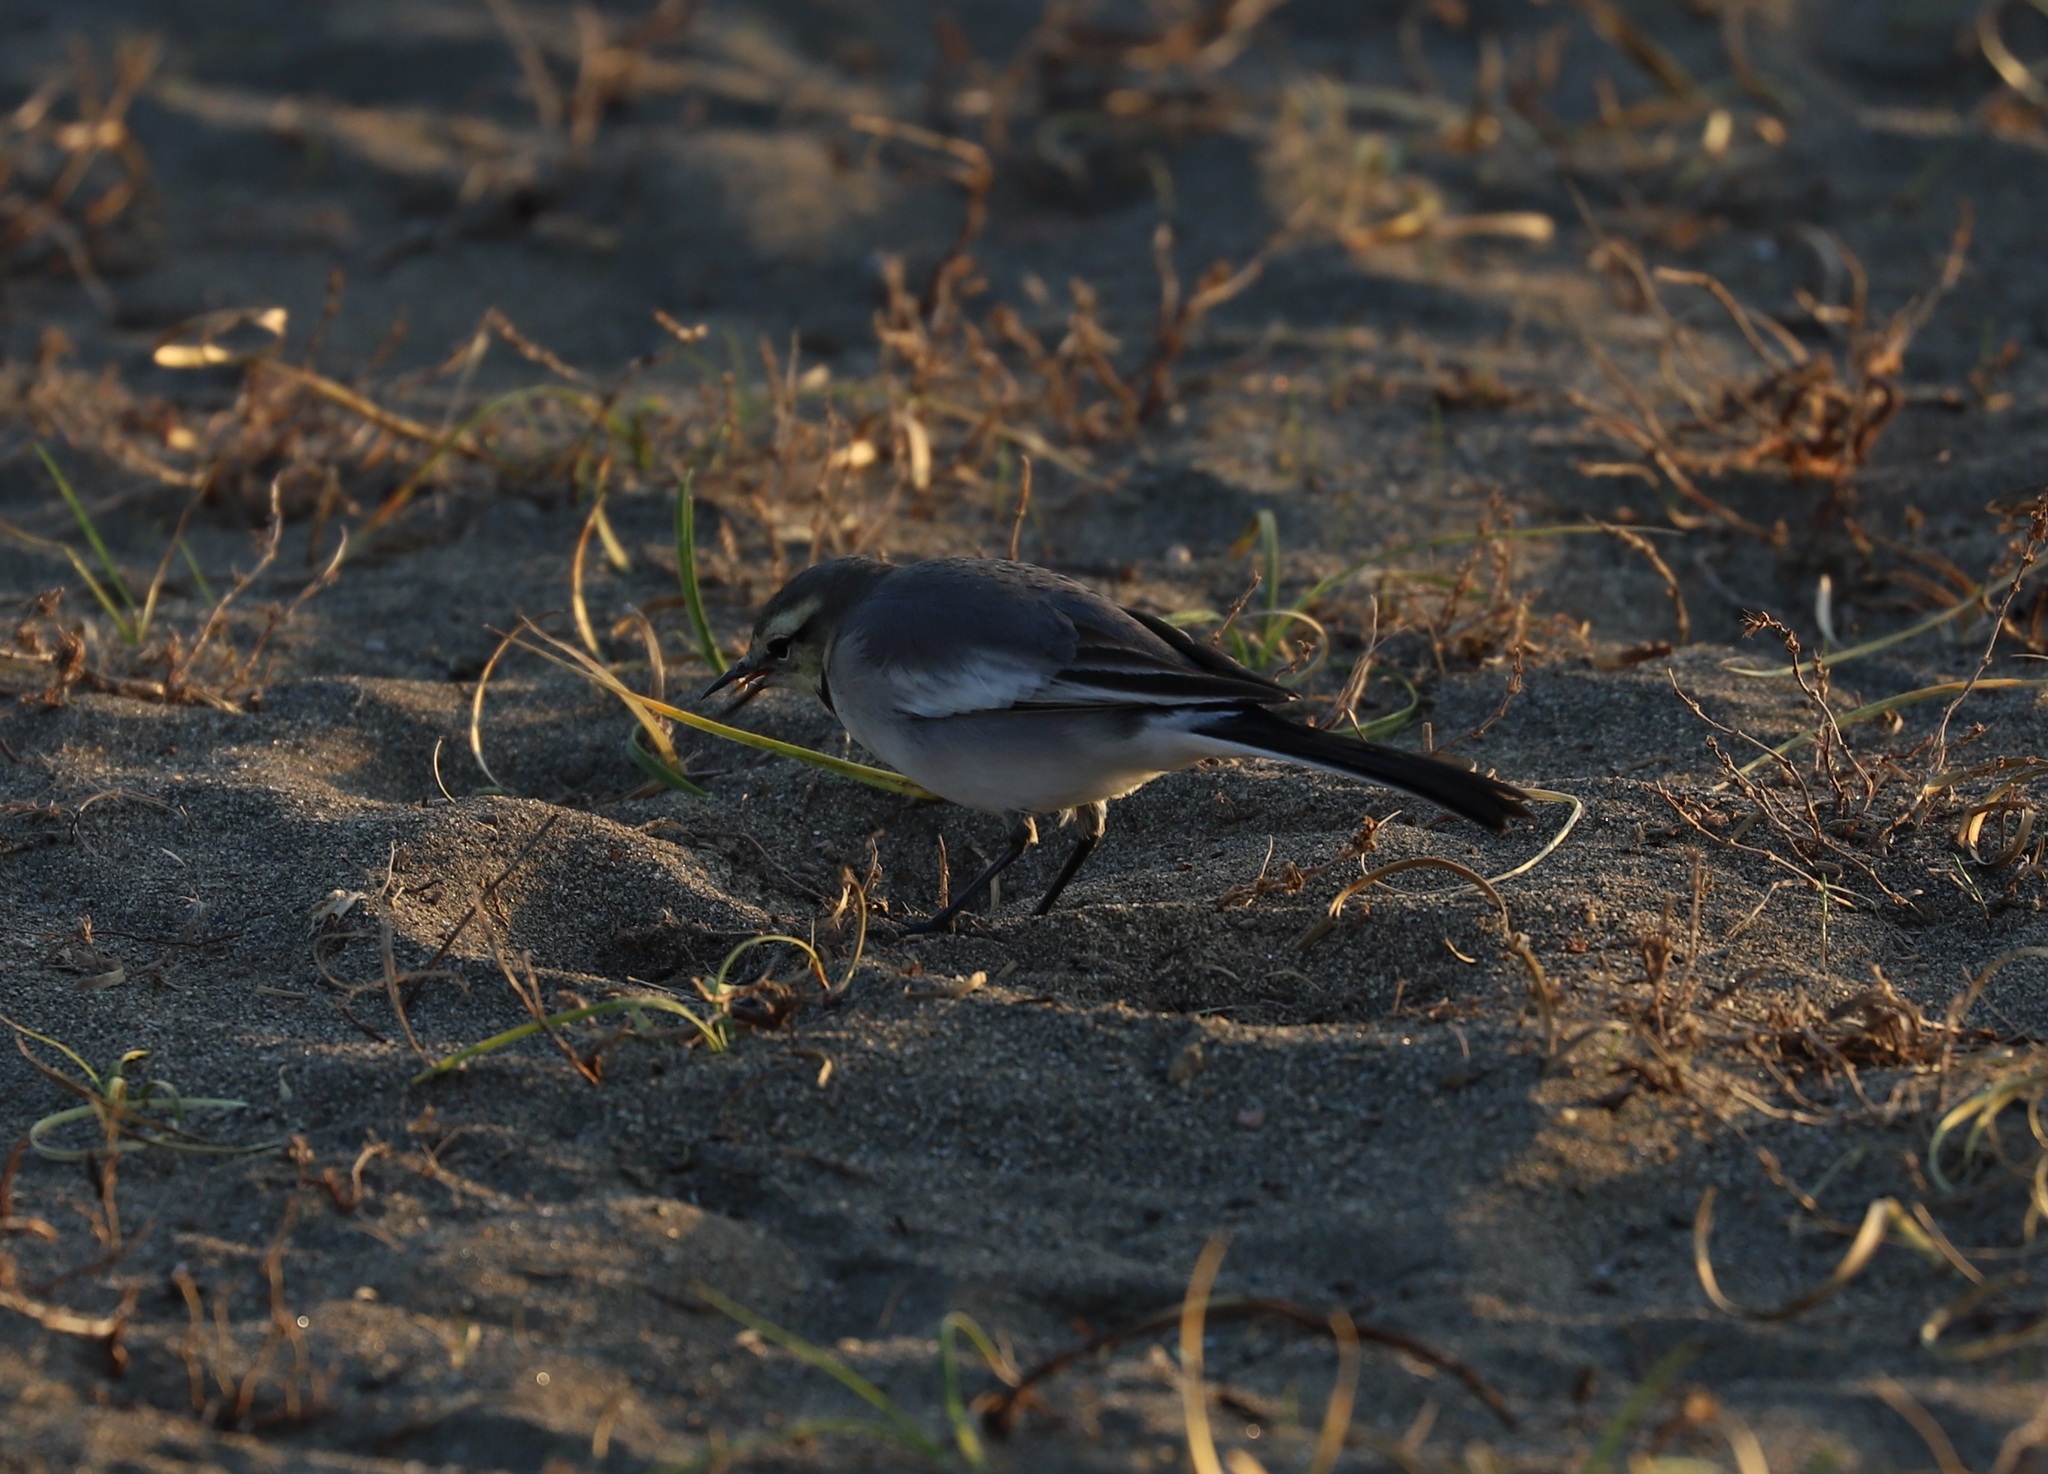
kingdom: Animalia
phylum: Chordata
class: Aves
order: Passeriformes
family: Motacillidae
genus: Motacilla
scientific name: Motacilla alba
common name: White wagtail
